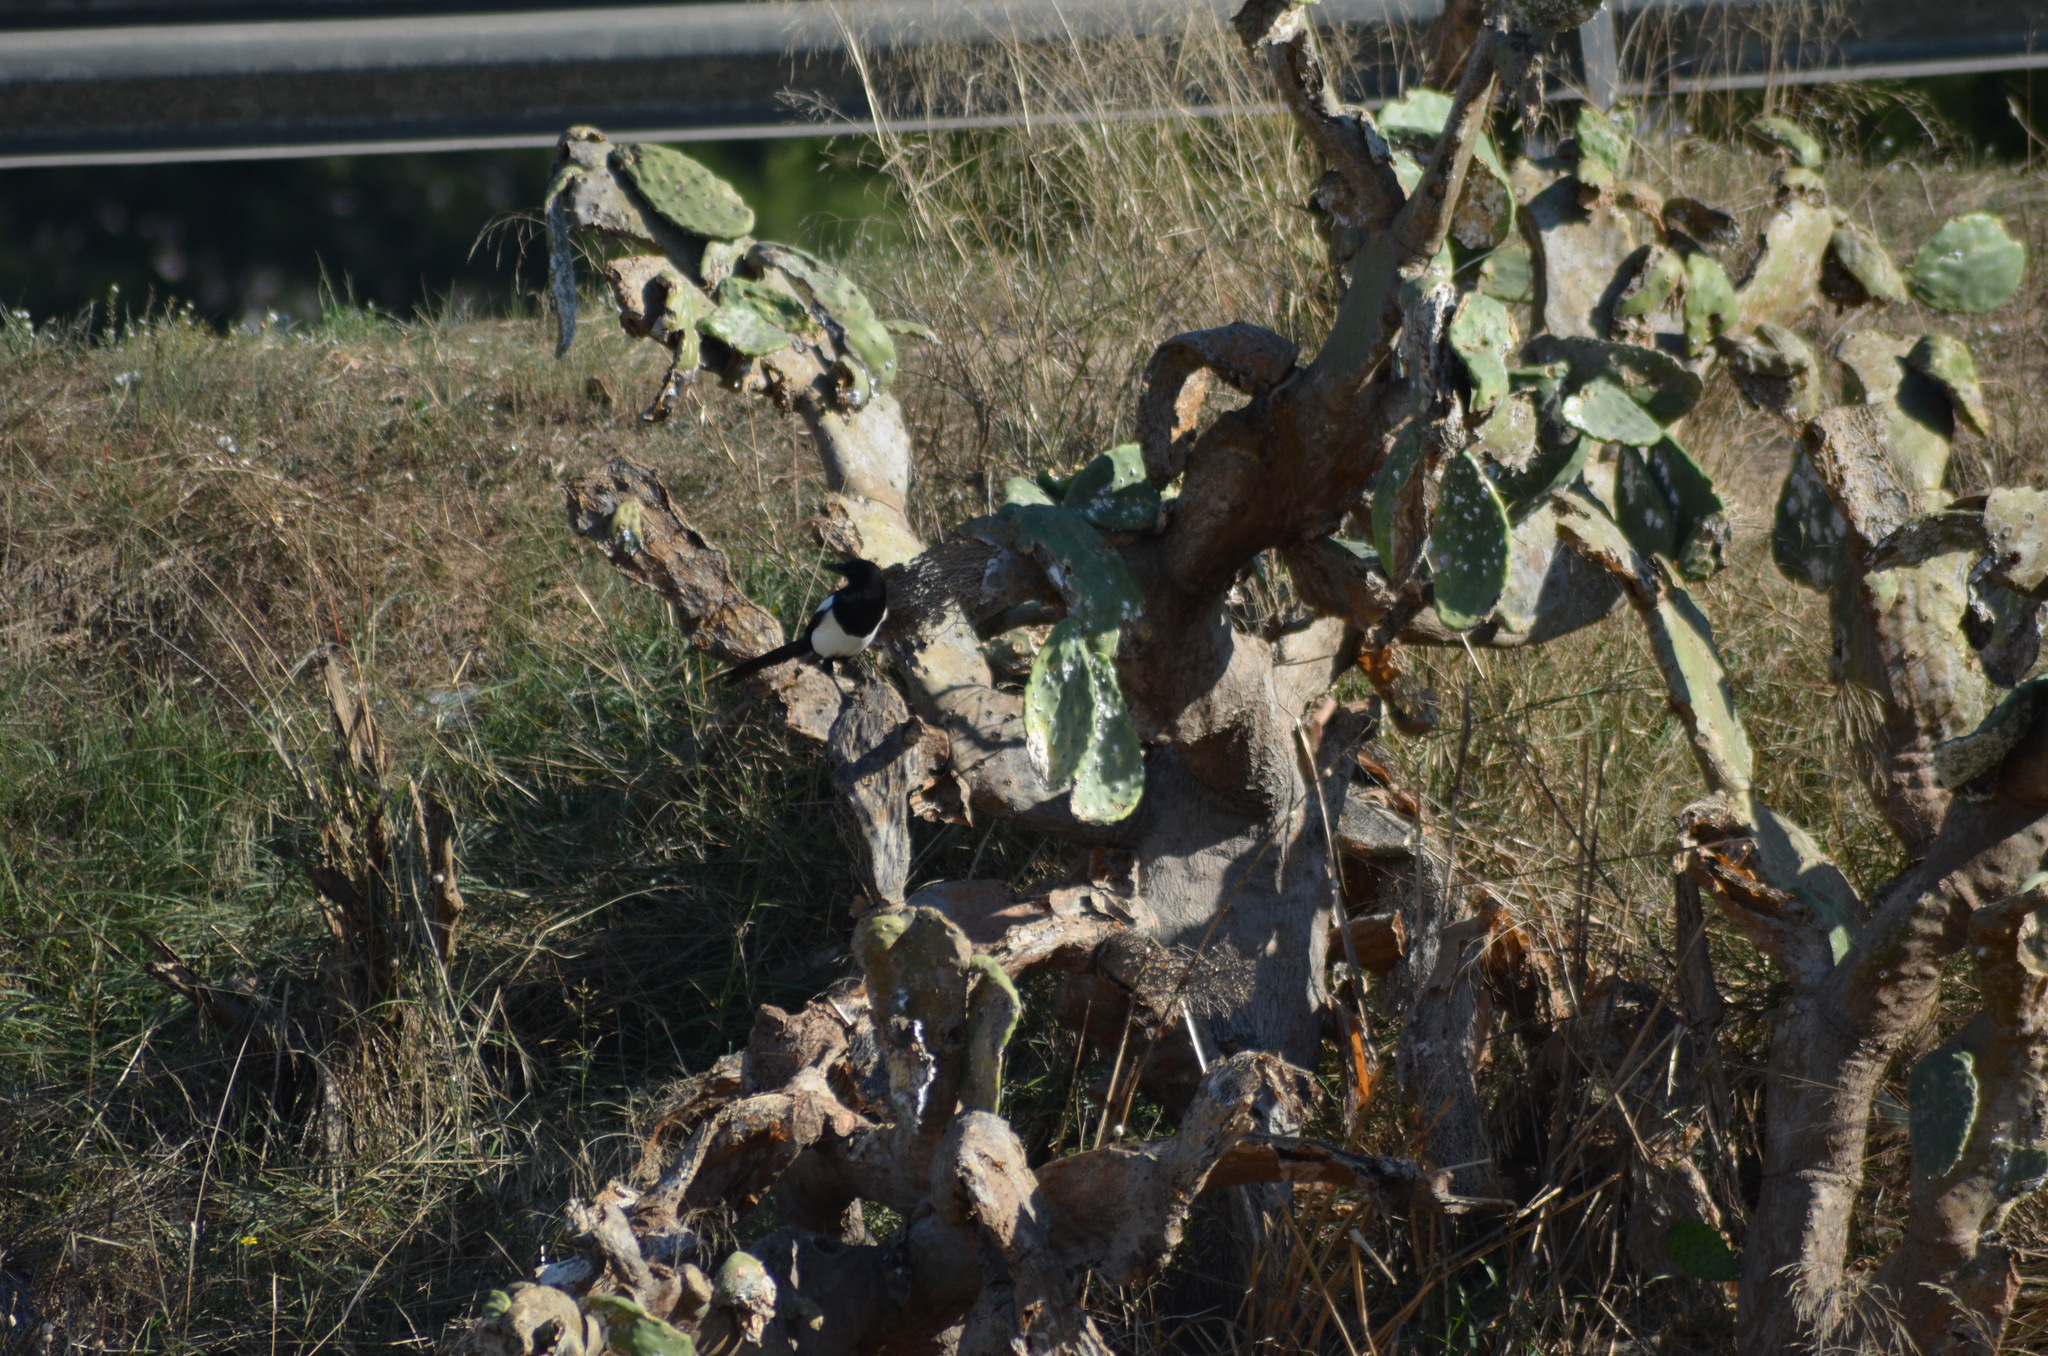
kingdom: Animalia
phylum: Chordata
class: Aves
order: Passeriformes
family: Corvidae
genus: Pica
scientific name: Pica pica
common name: Eurasian magpie
